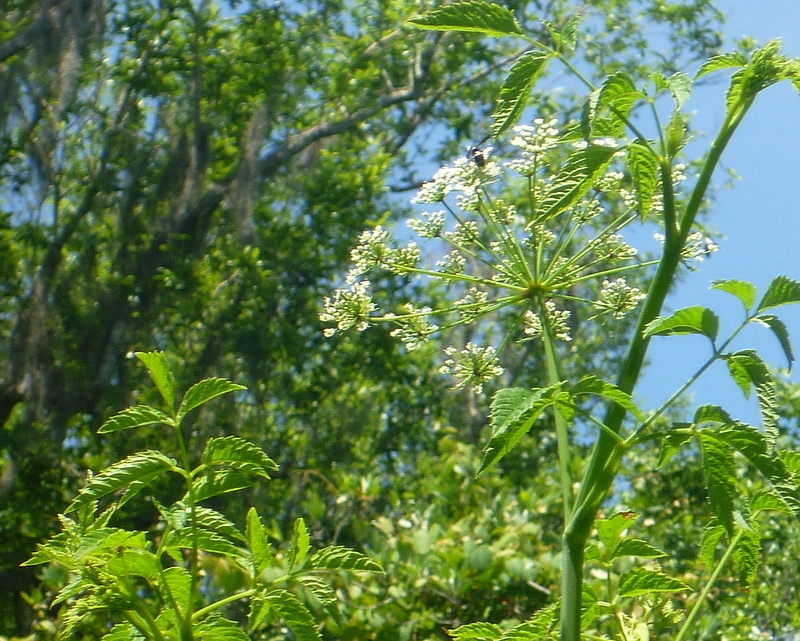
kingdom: Plantae
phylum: Tracheophyta
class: Magnoliopsida
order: Apiales
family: Apiaceae
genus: Cicuta
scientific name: Cicuta maculata
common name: Spotted cowbane
